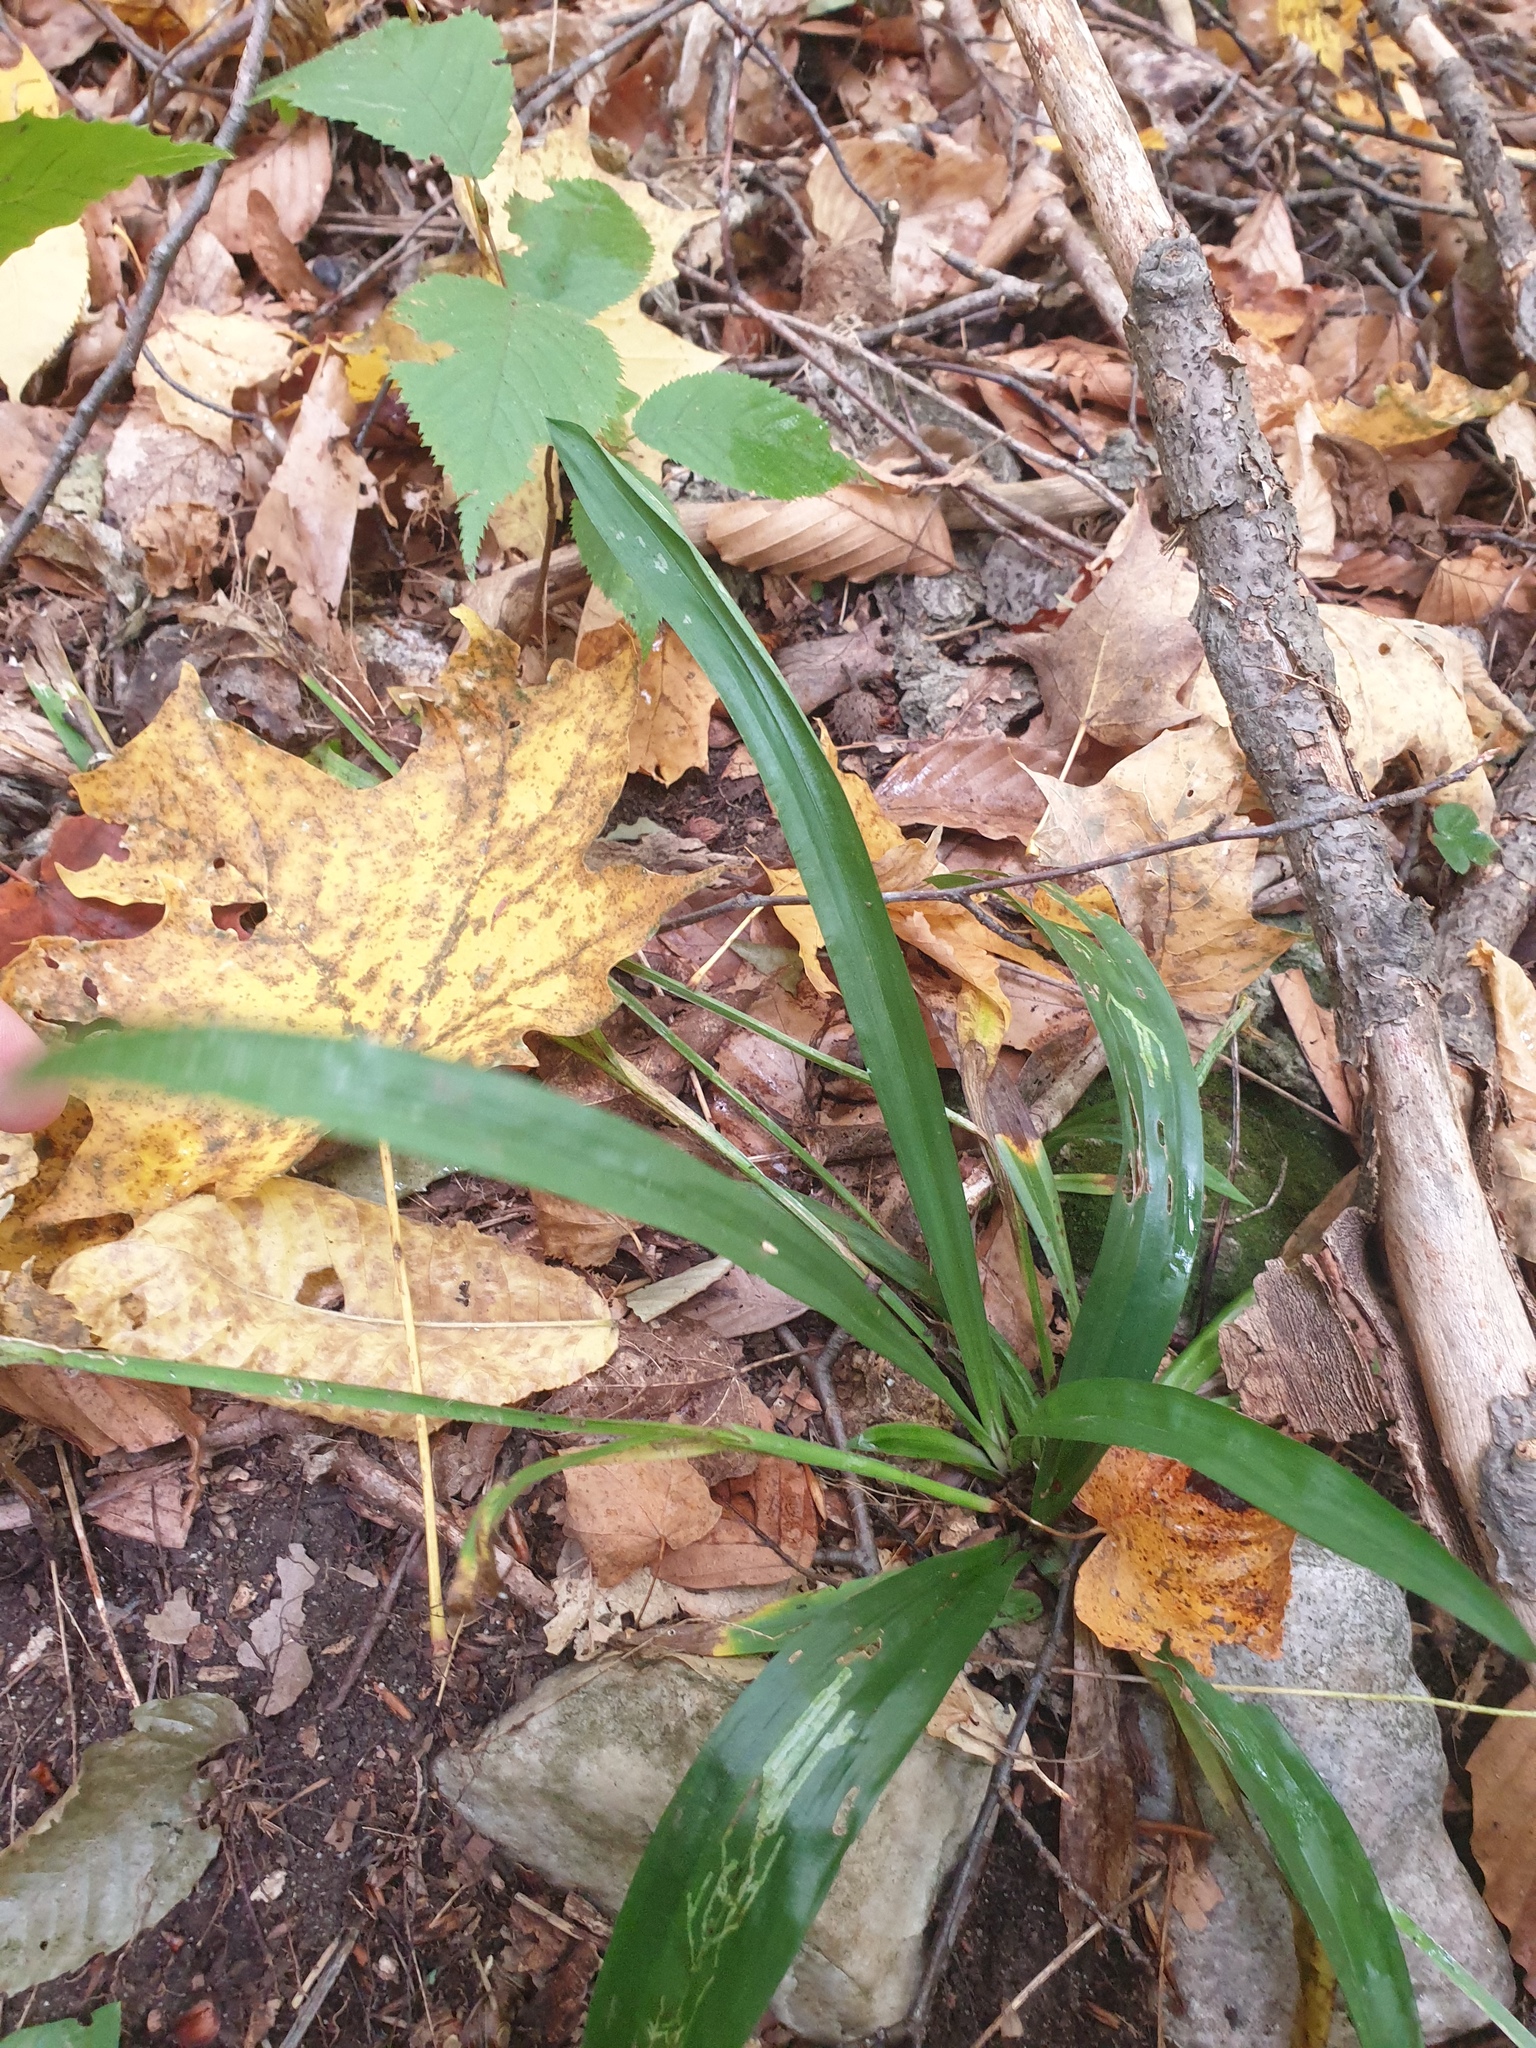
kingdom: Plantae
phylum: Tracheophyta
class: Liliopsida
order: Poales
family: Cyperaceae
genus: Carex
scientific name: Carex albursina
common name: Blunt-scale wood sedge
